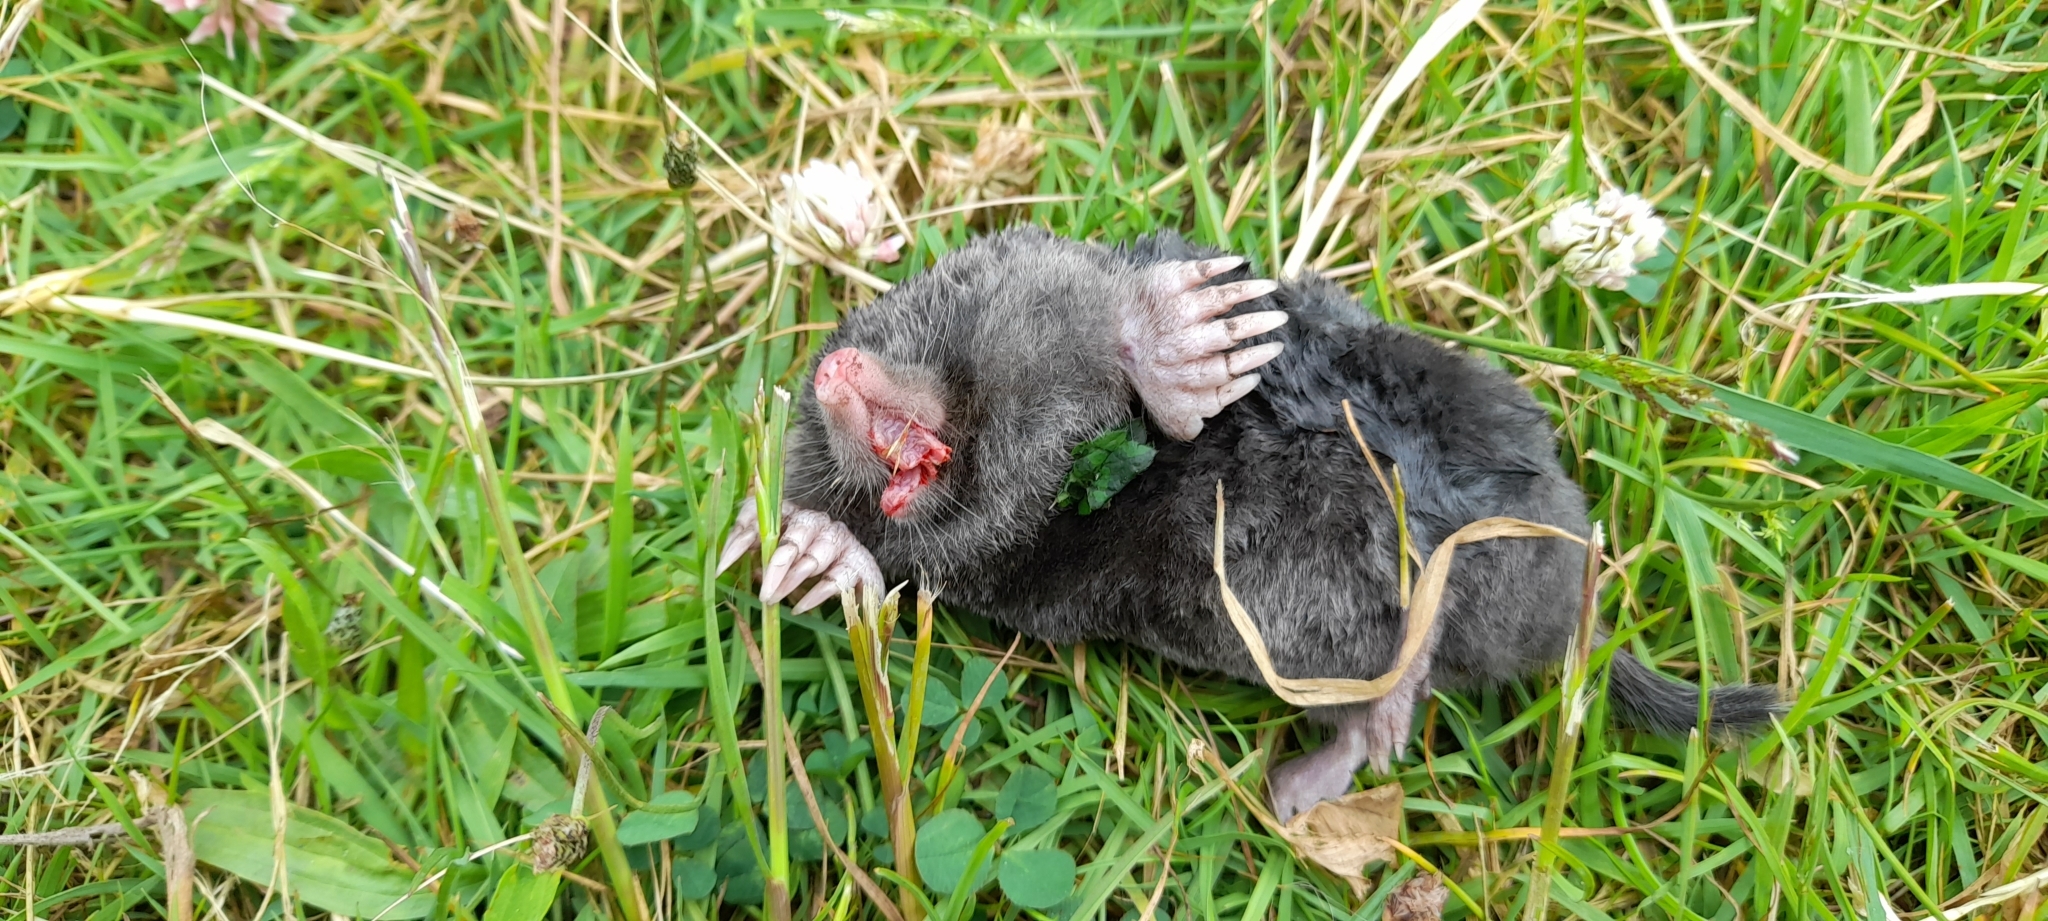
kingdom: Animalia
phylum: Chordata
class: Mammalia
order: Soricomorpha
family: Talpidae
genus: Talpa
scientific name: Talpa europaea
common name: European mole
